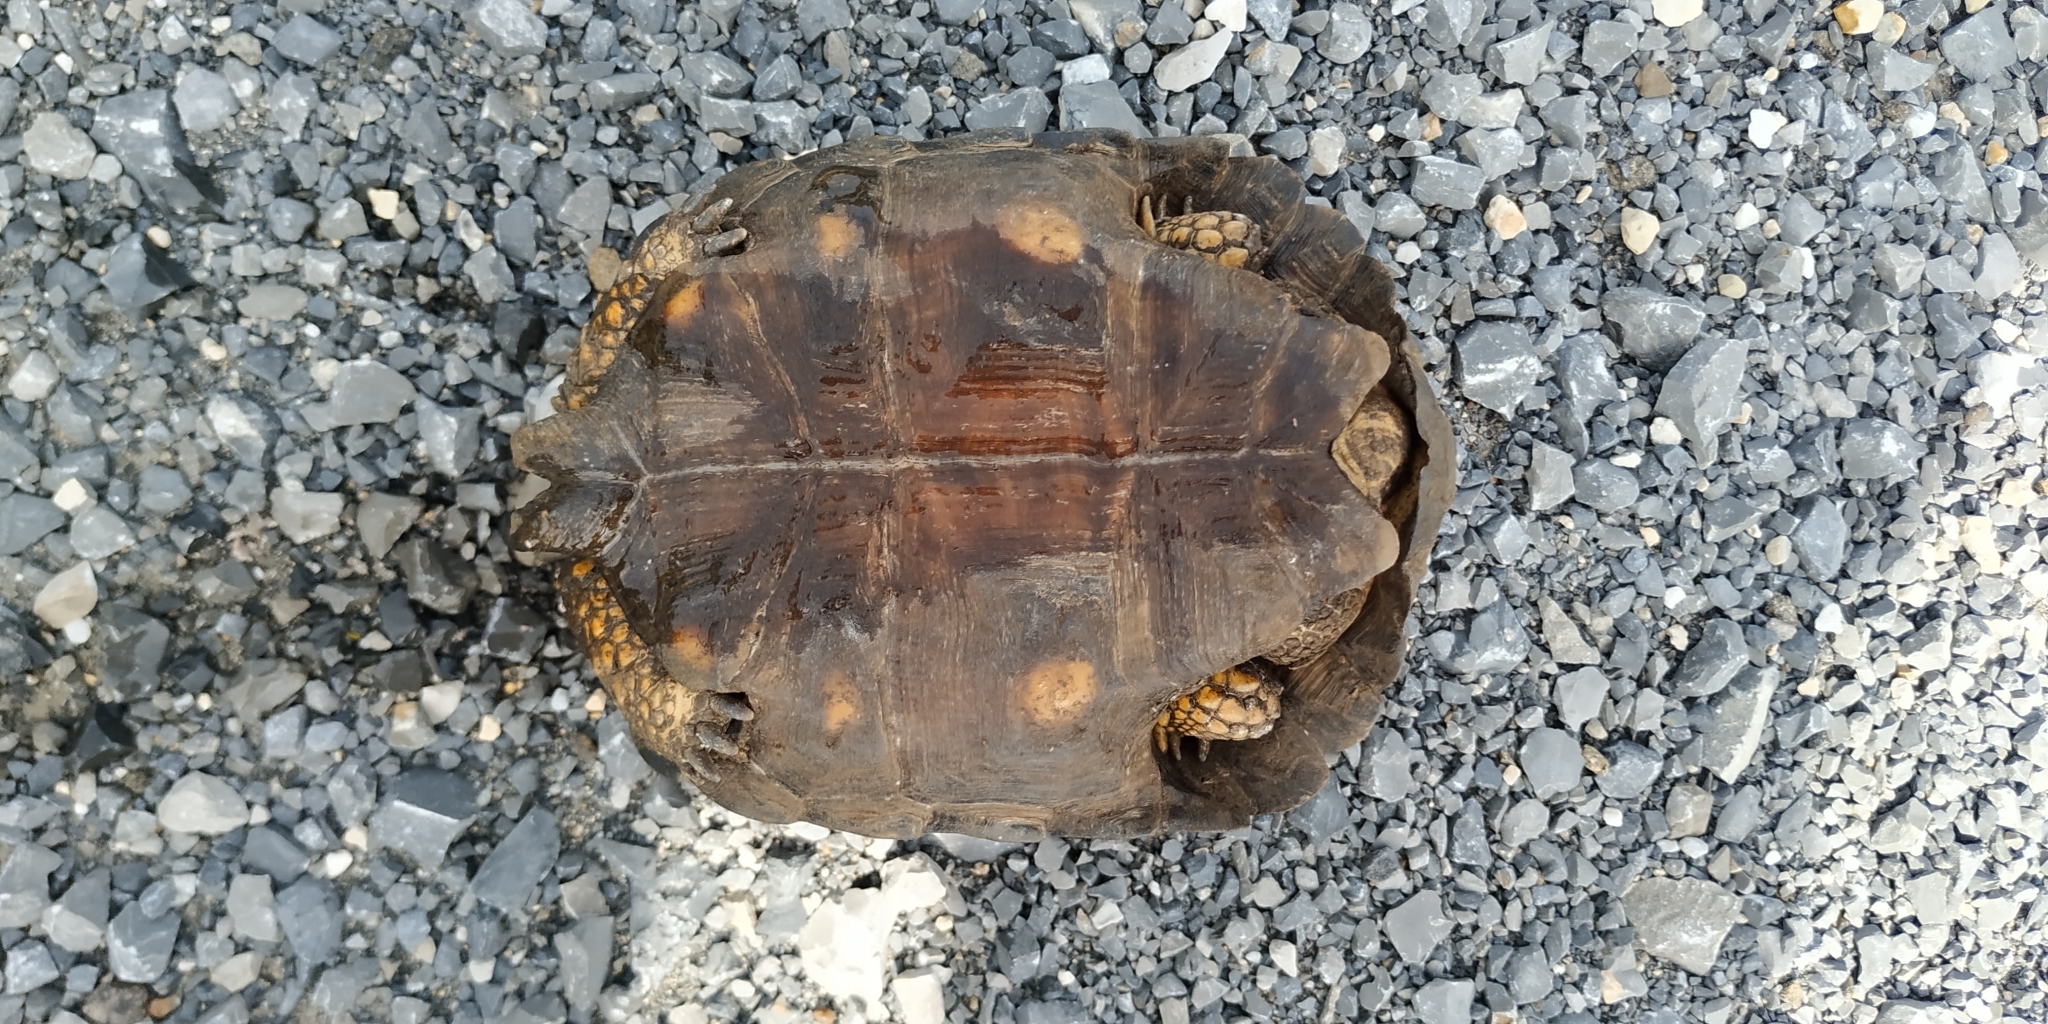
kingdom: Animalia
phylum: Chordata
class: Testudines
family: Testudinidae
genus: Gopherus
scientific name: Gopherus berlandieri
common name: Texas (gopher )tortoise
